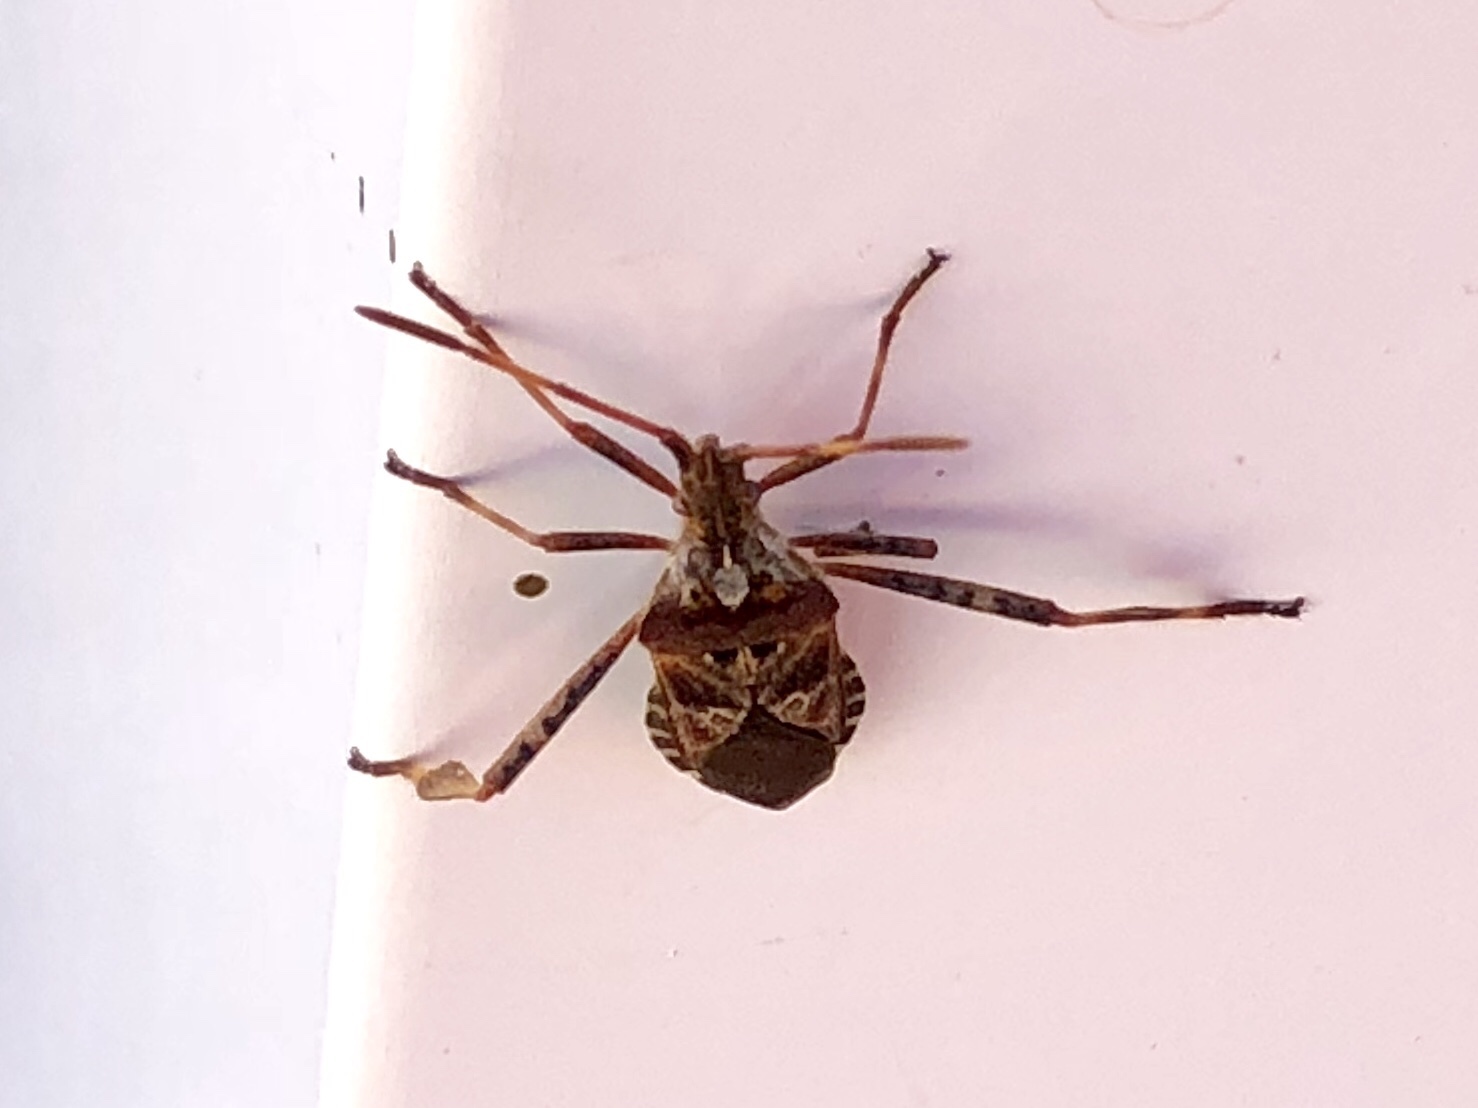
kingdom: Animalia
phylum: Arthropoda
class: Insecta
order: Hemiptera
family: Coreidae
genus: Leptoglossus
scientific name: Leptoglossus occidentalis
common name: Western conifer-seed bug
